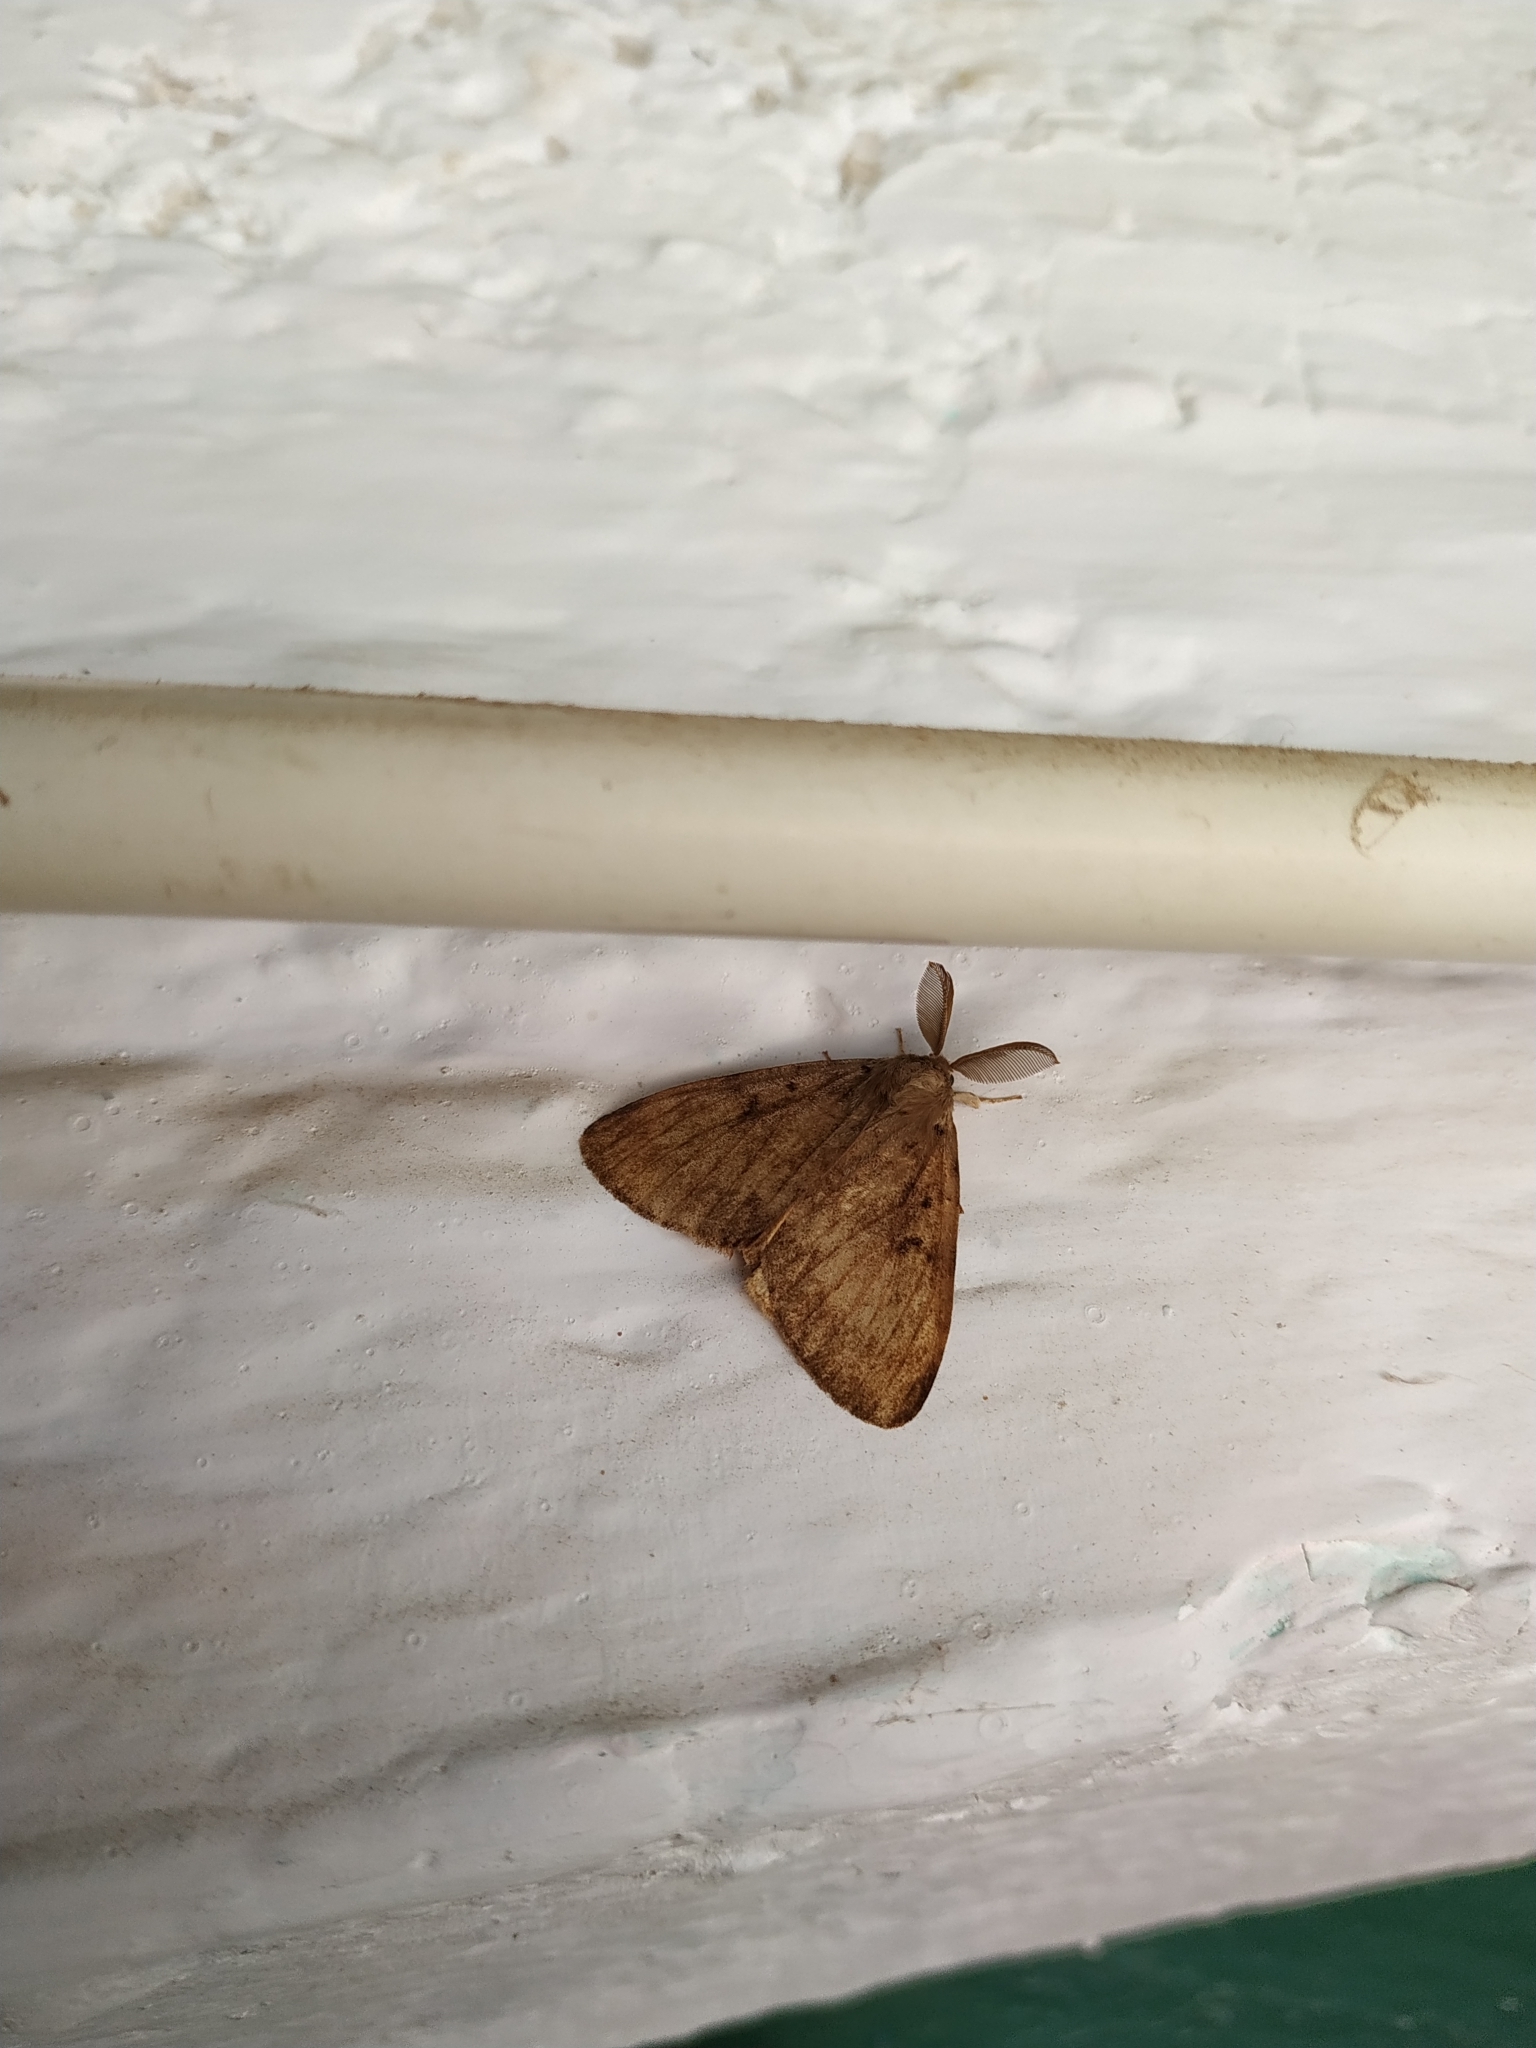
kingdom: Animalia
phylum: Arthropoda
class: Insecta
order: Lepidoptera
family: Erebidae
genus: Lymantria
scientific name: Lymantria dispar
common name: Gypsy moth
